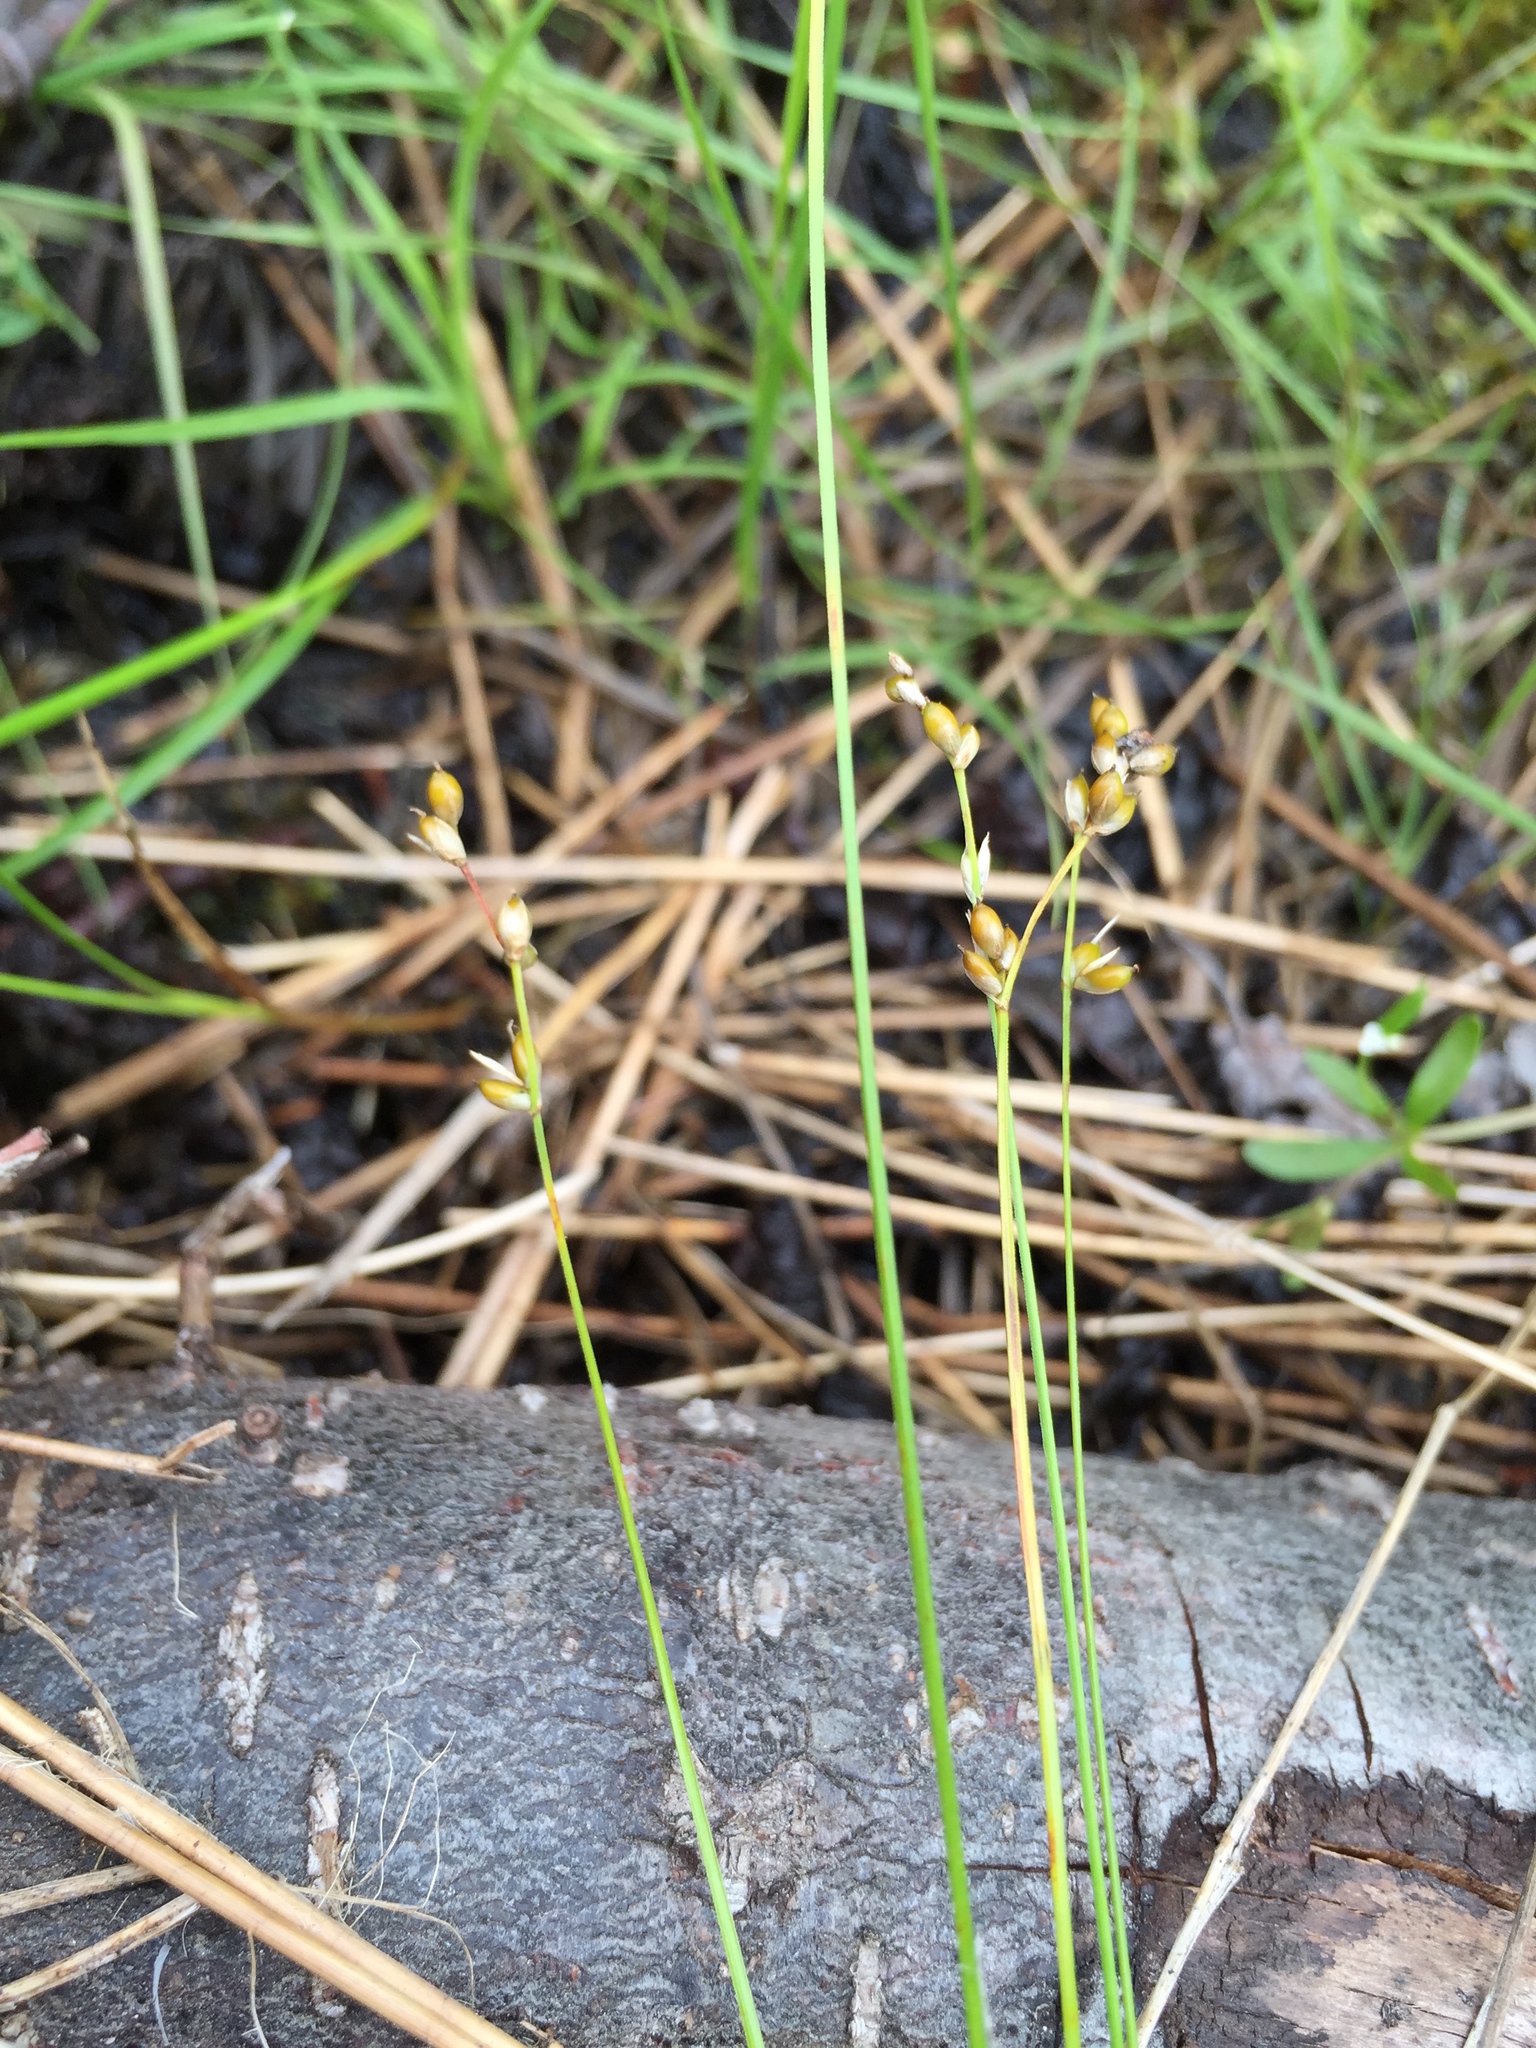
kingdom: Plantae
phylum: Tracheophyta
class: Liliopsida
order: Poales
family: Cyperaceae
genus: Carex
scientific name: Carex disperma
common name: Short-leaved sedge
